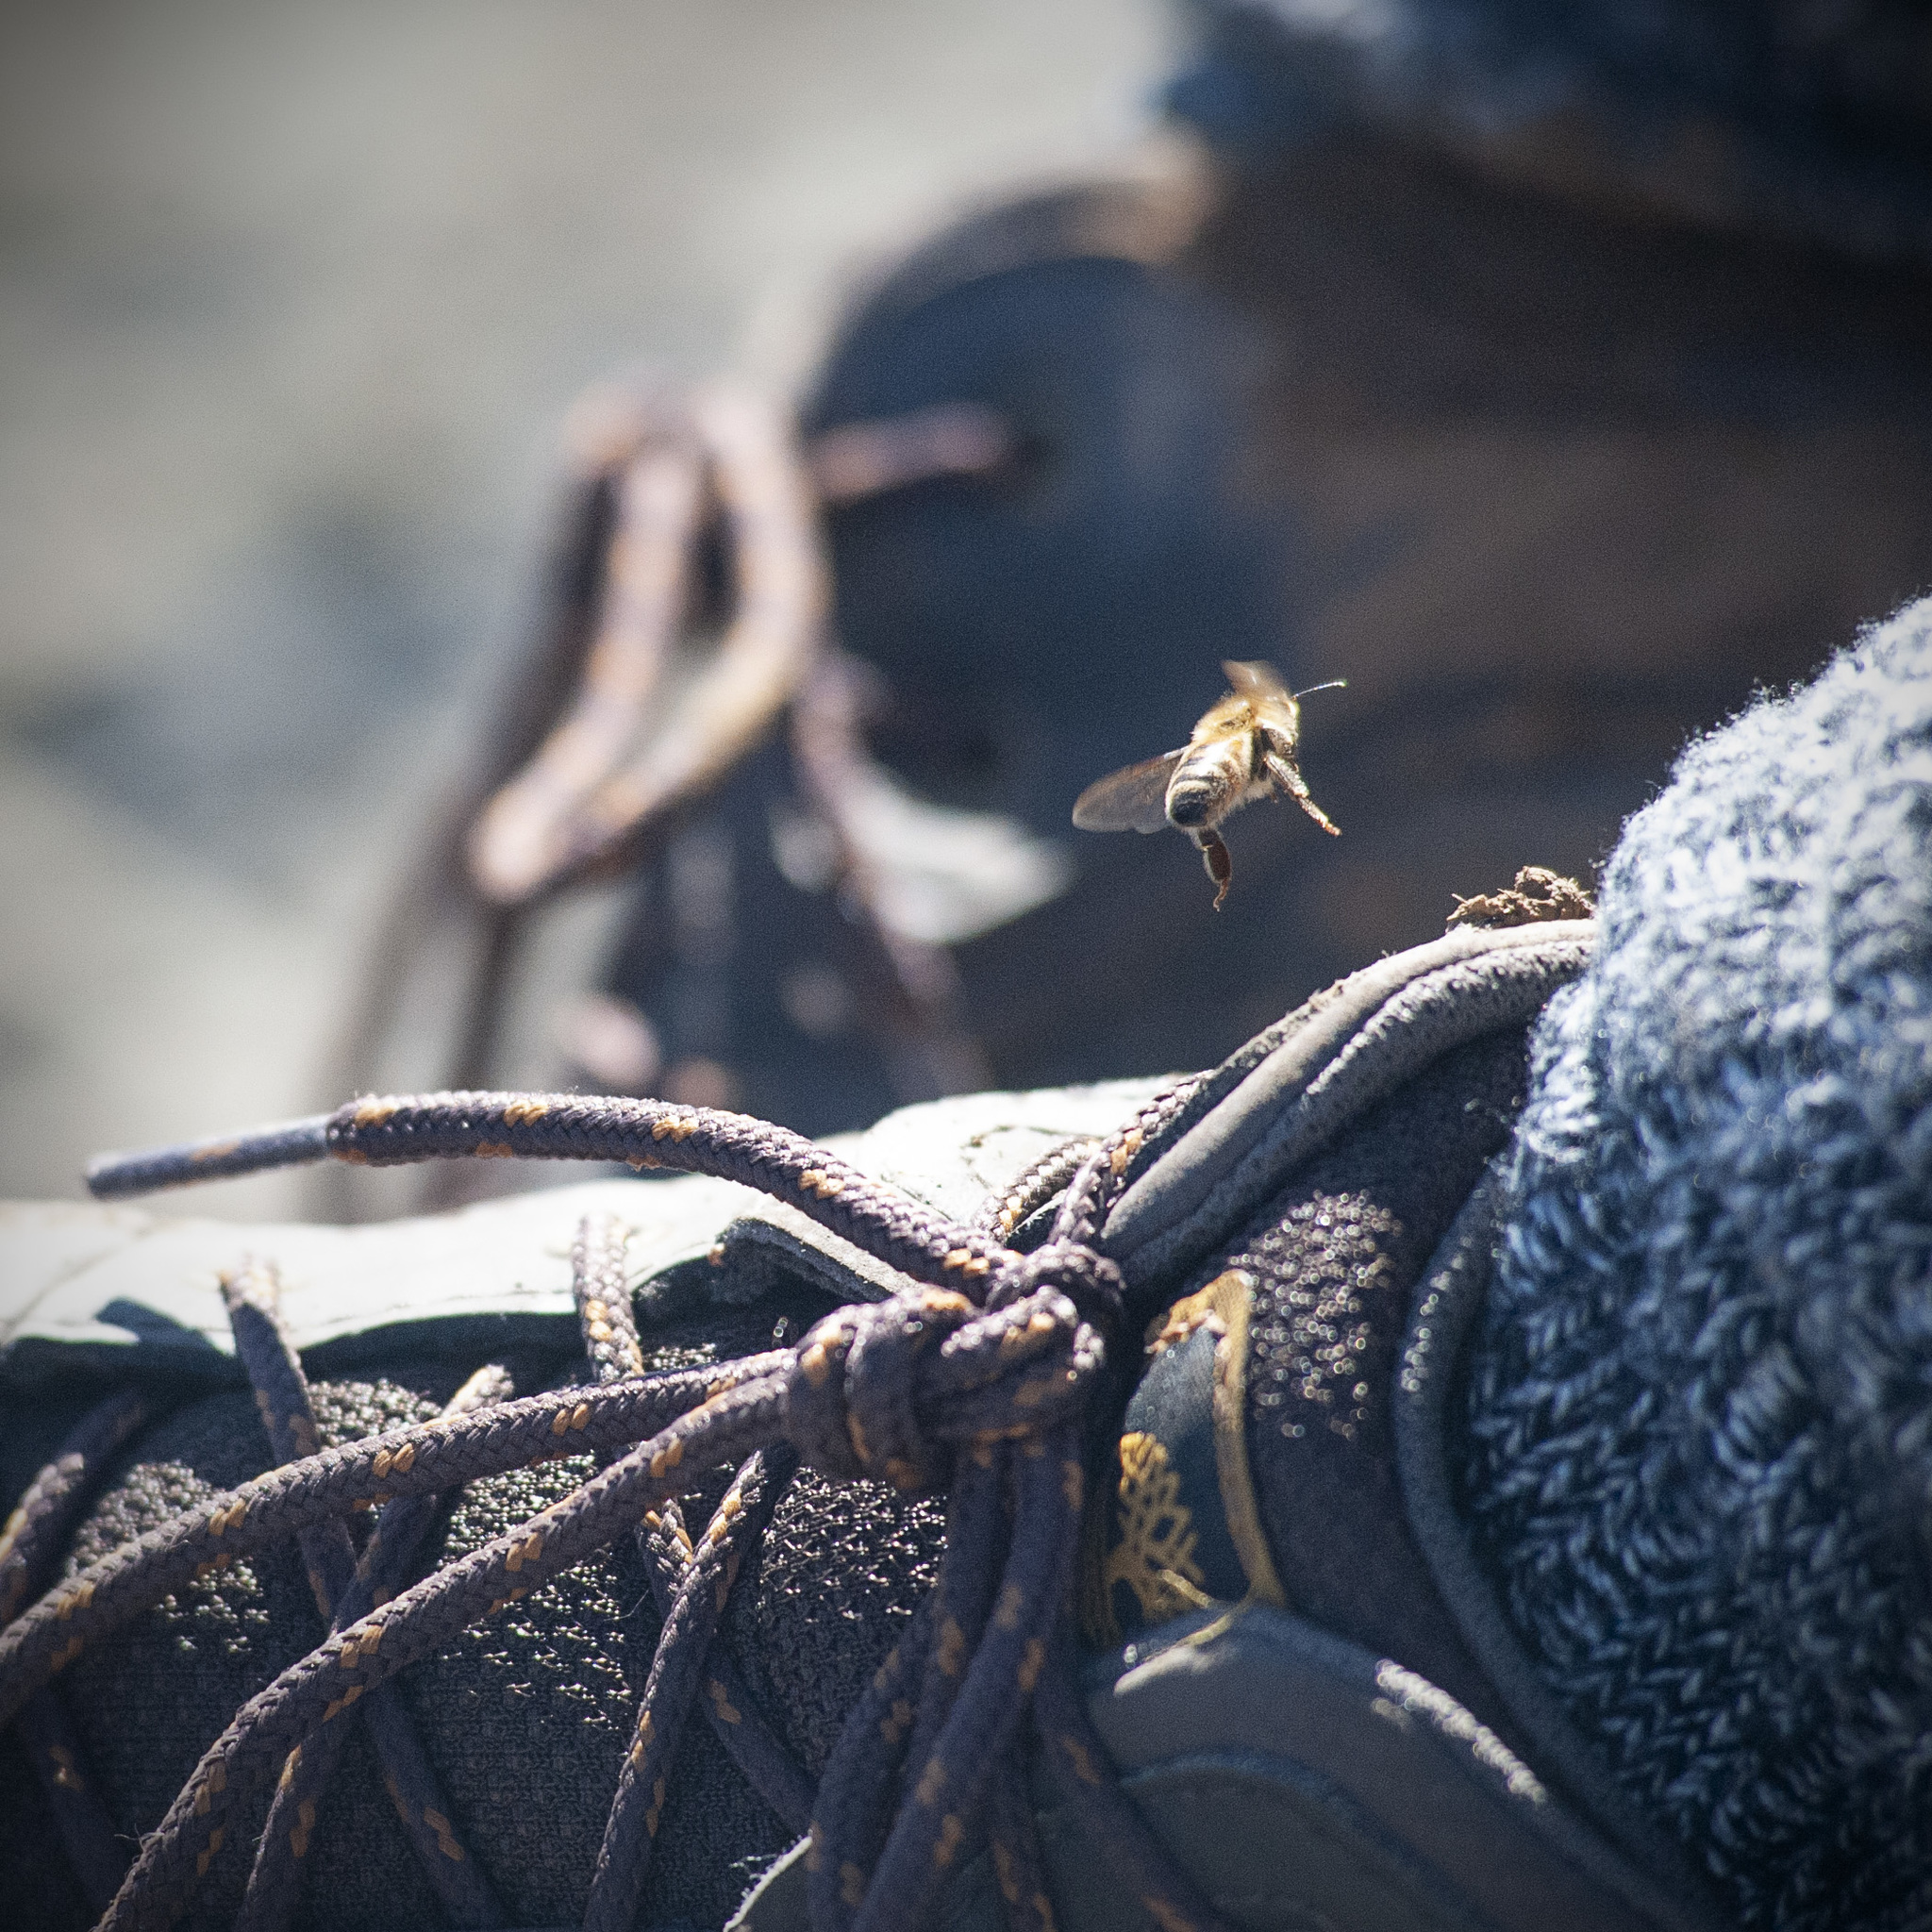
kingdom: Animalia
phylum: Arthropoda
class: Insecta
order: Hymenoptera
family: Apidae
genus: Apis
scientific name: Apis mellifera
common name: Honey bee
